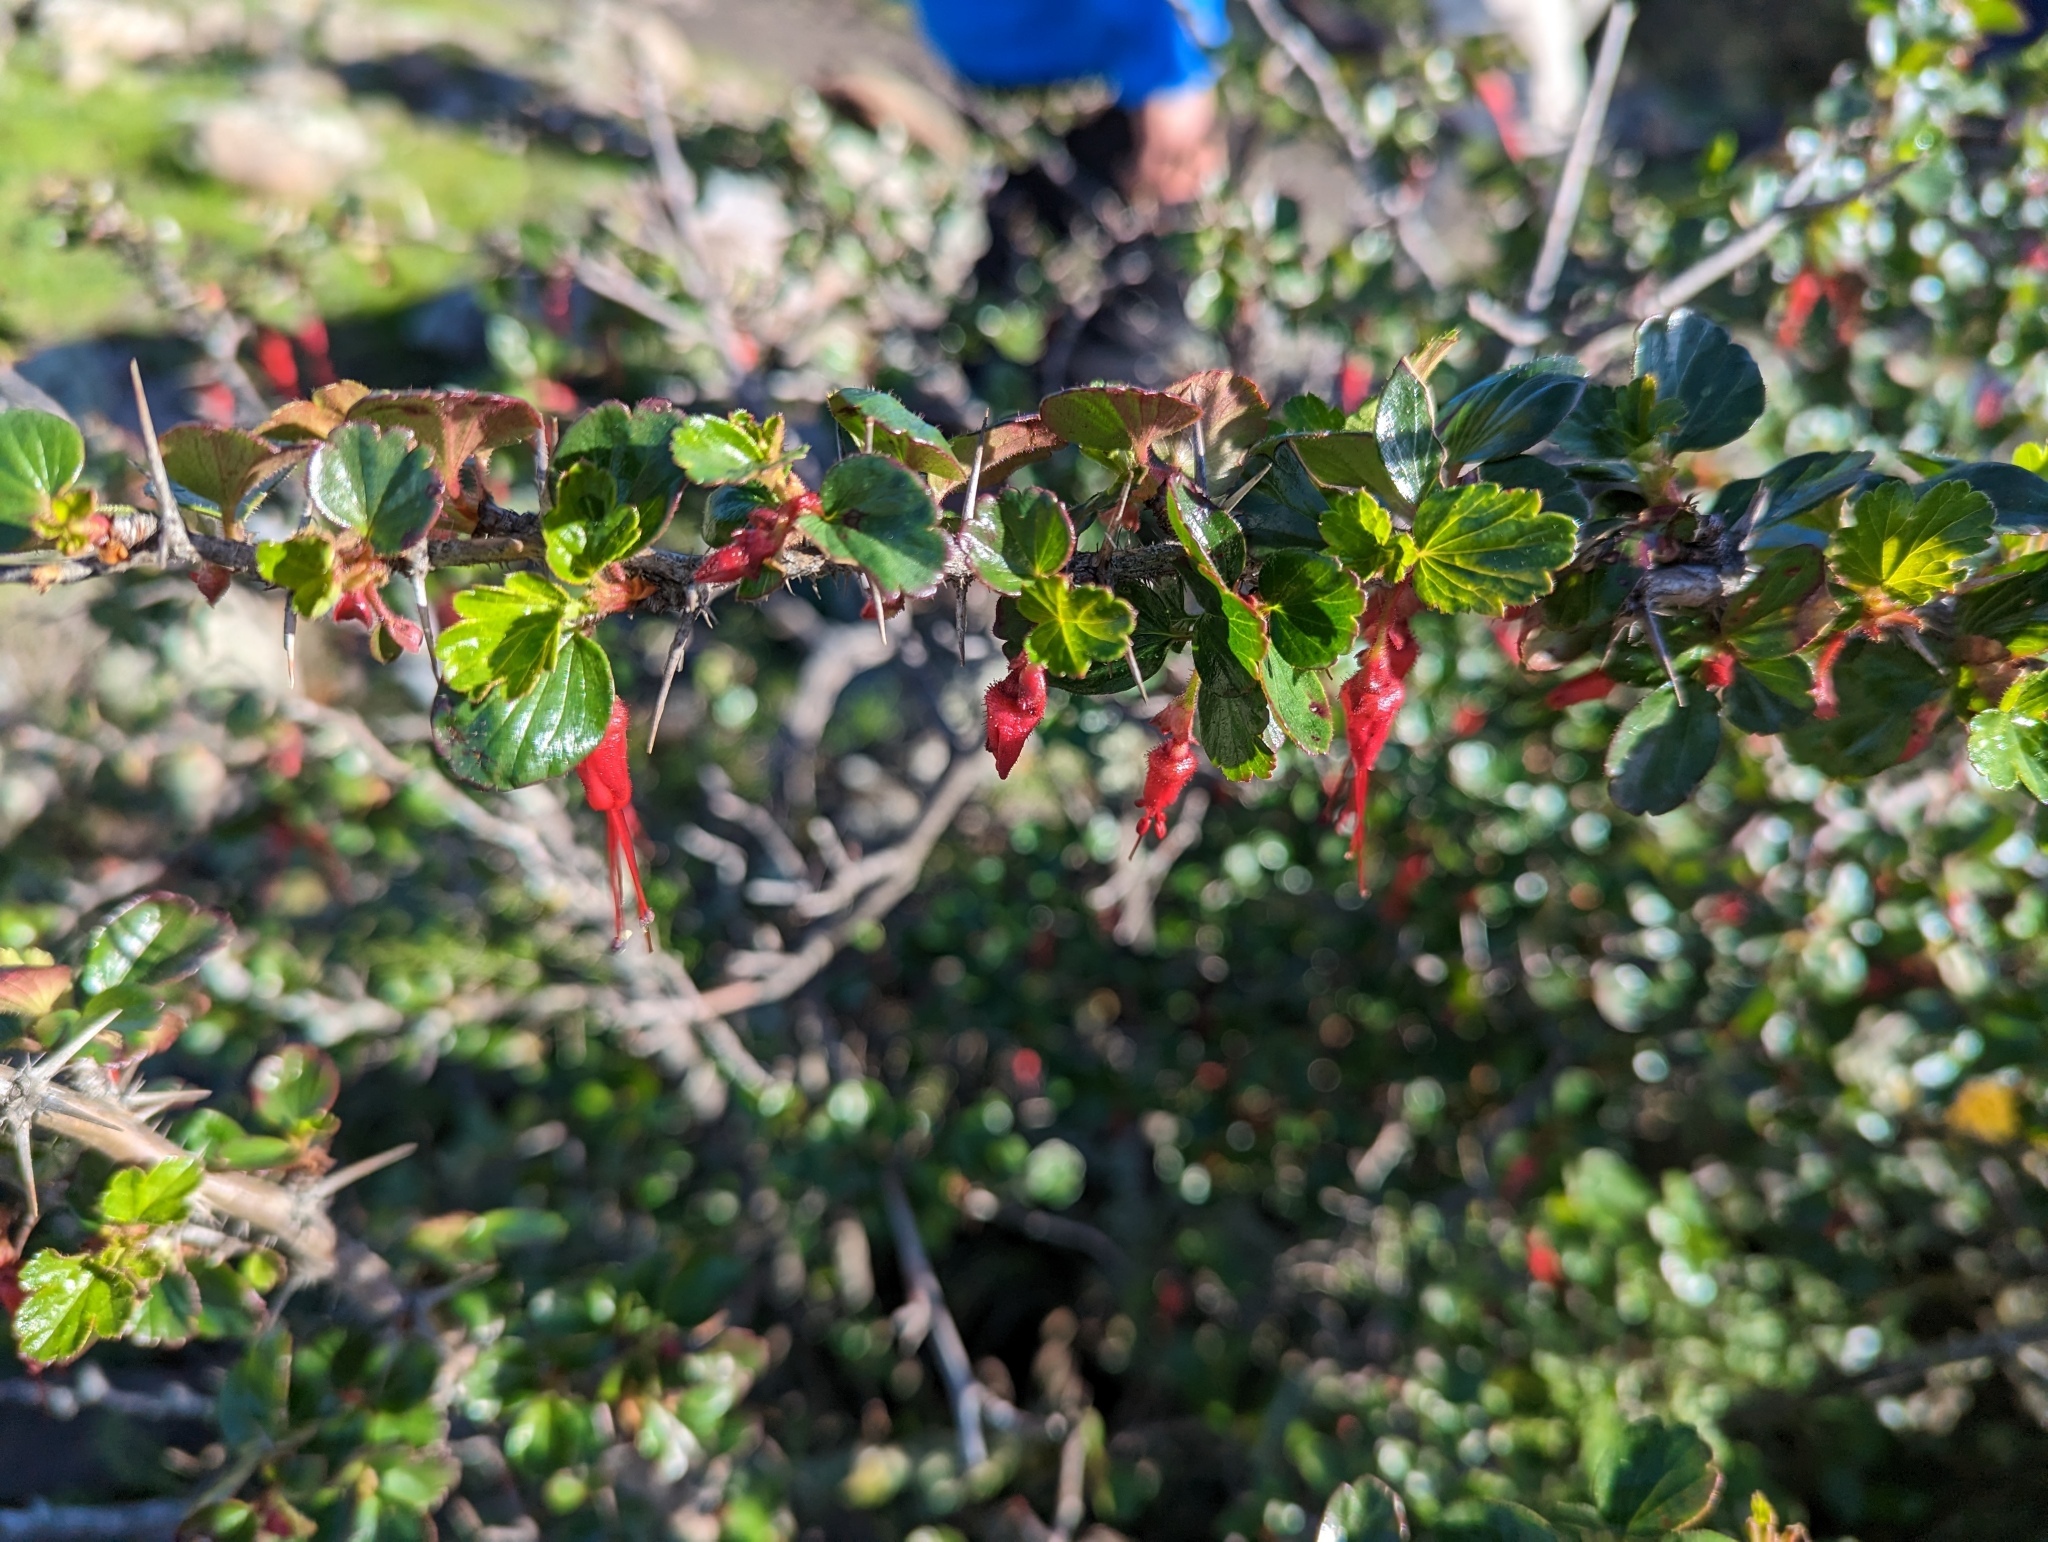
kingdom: Plantae
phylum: Tracheophyta
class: Magnoliopsida
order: Saxifragales
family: Grossulariaceae
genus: Ribes
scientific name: Ribes speciosum
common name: Fuchsia-flower gooseberry
